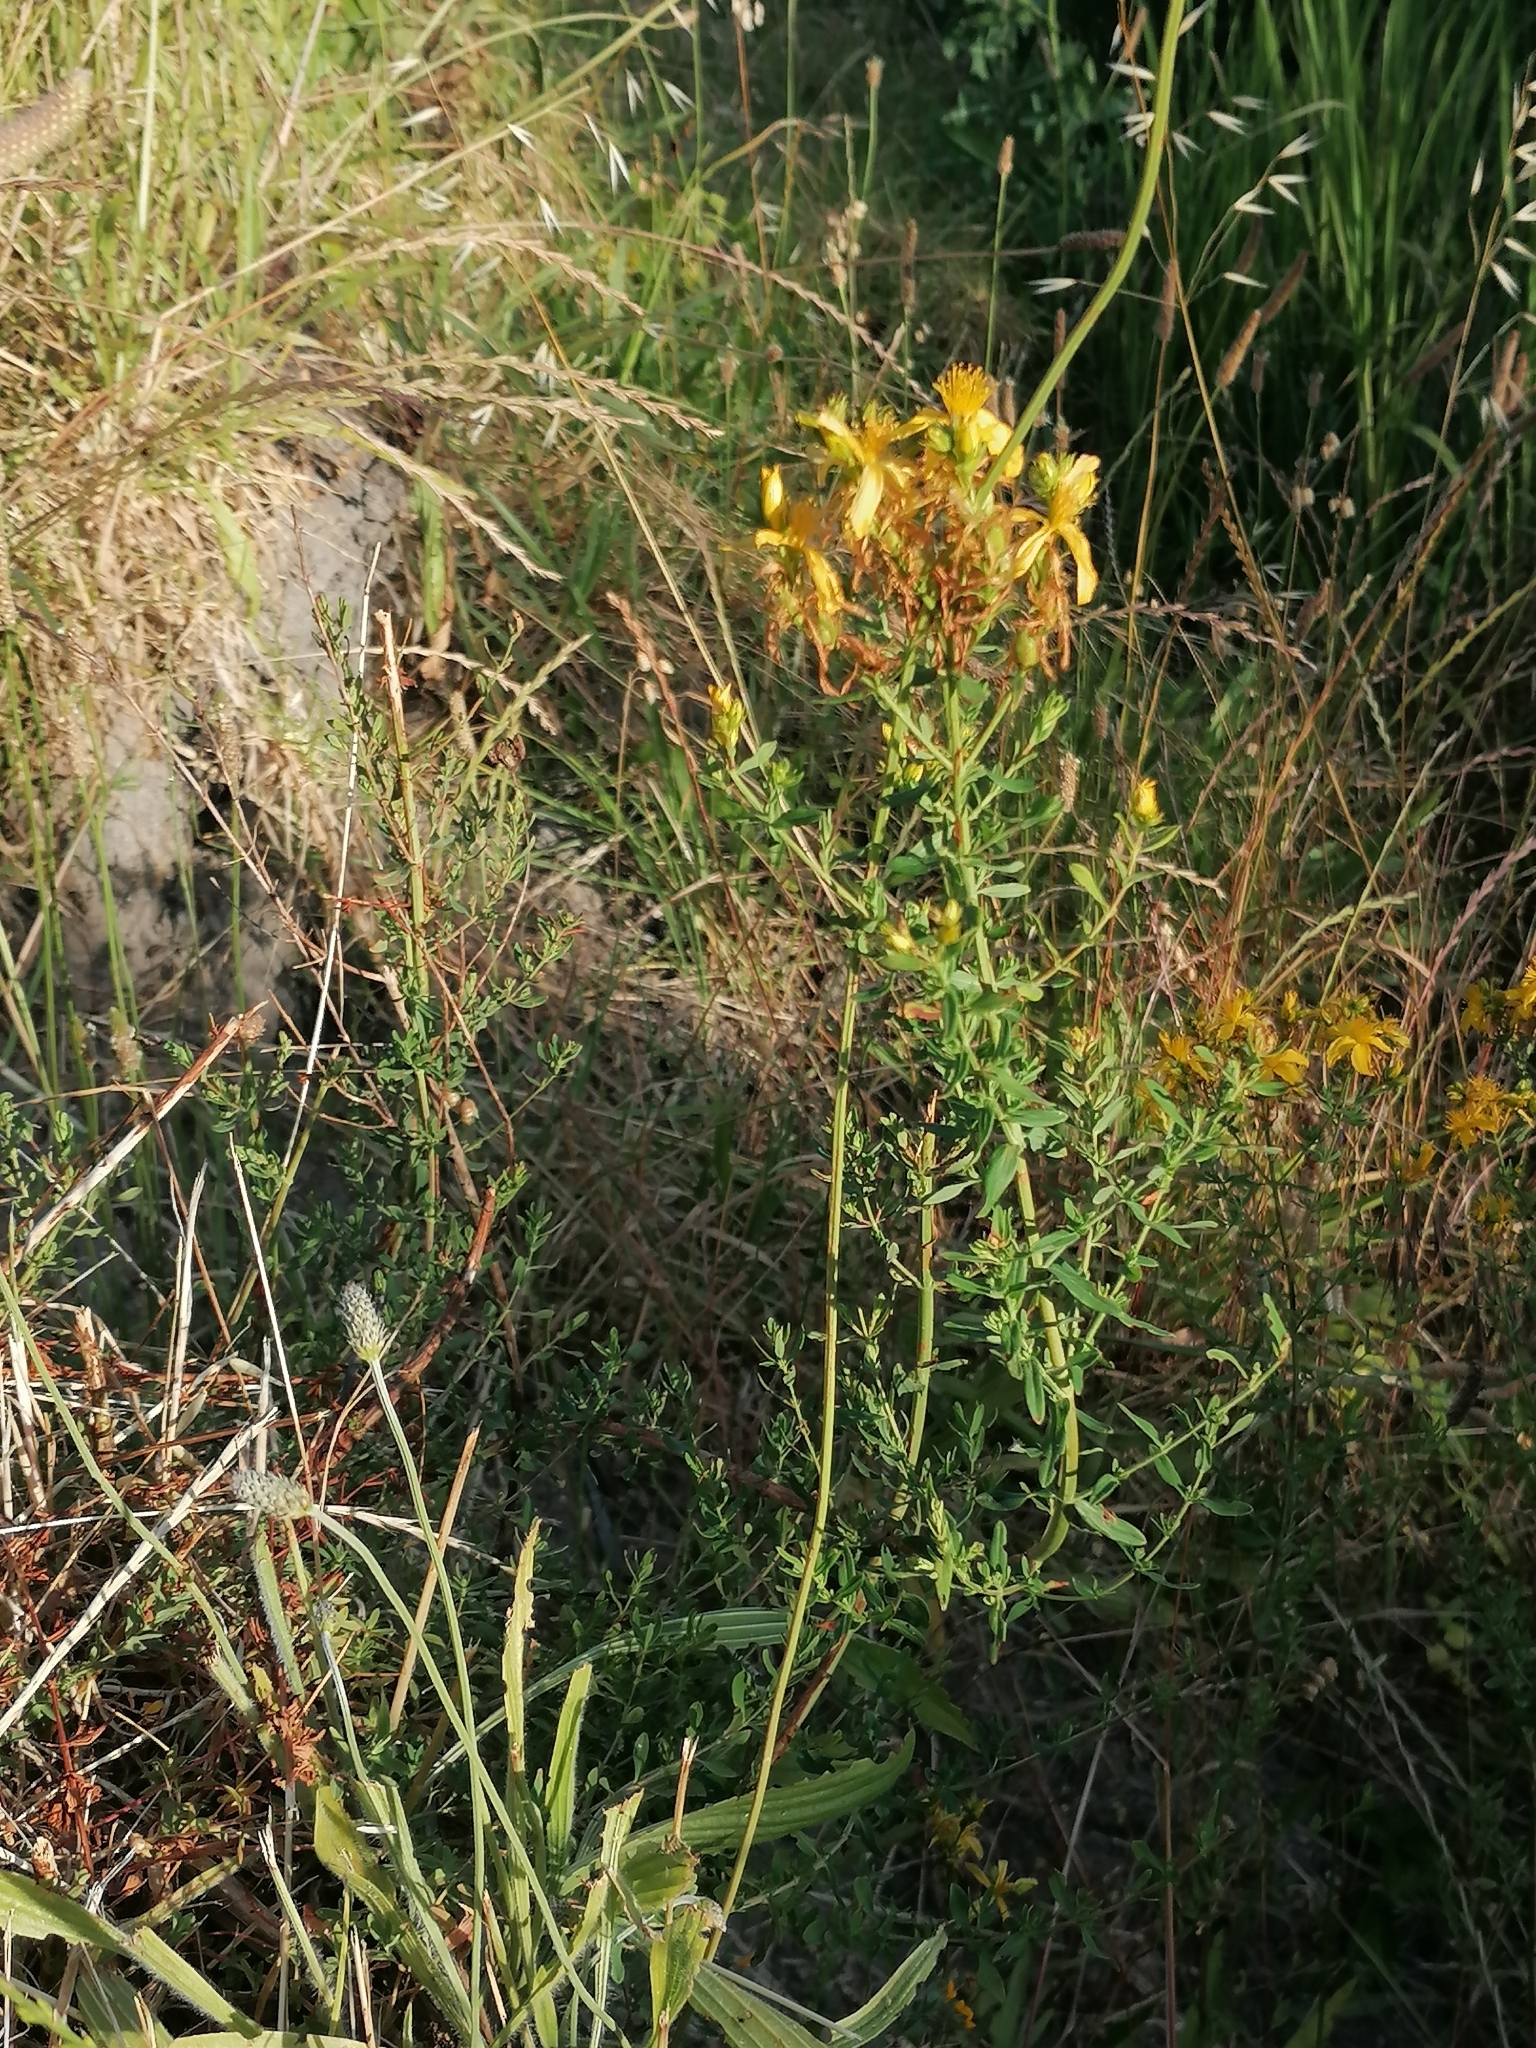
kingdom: Plantae
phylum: Tracheophyta
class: Magnoliopsida
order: Malpighiales
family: Hypericaceae
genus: Hypericum
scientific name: Hypericum perforatum
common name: Common st. johnswort
